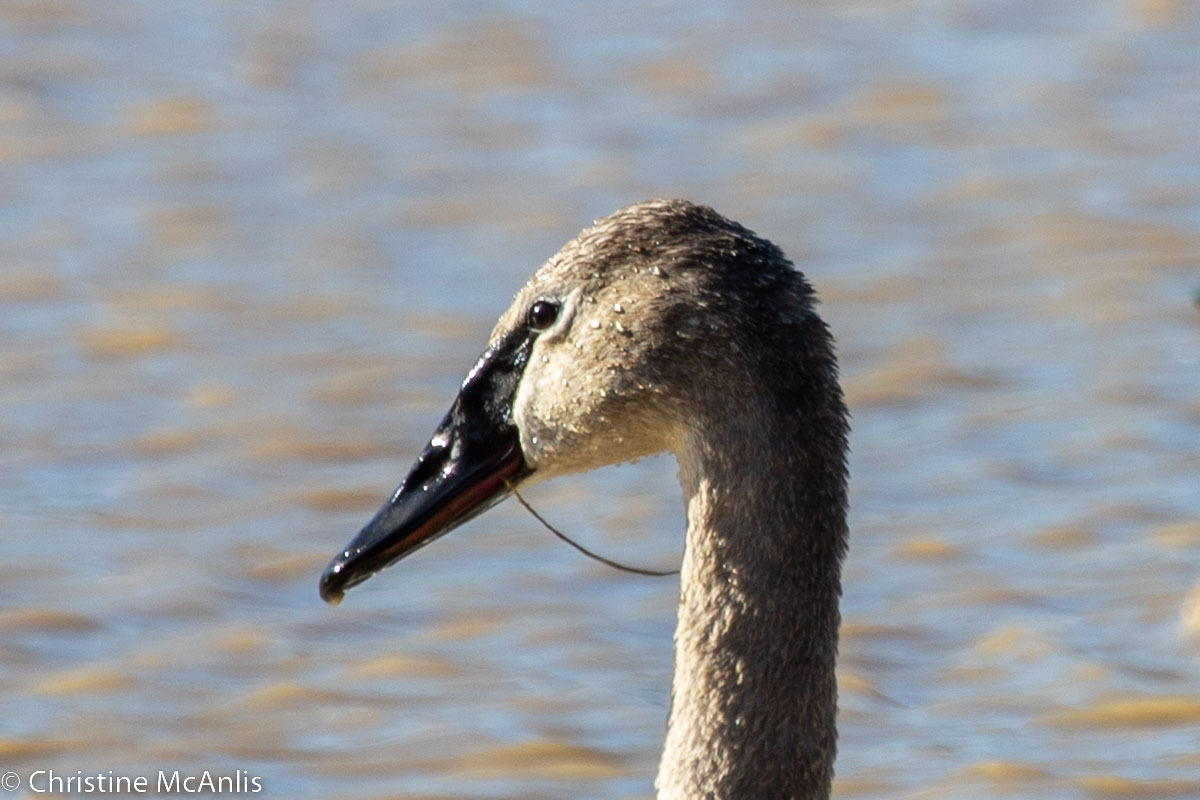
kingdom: Animalia
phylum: Chordata
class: Aves
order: Anseriformes
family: Anatidae
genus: Cygnus
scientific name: Cygnus buccinator
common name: Trumpeter swan
